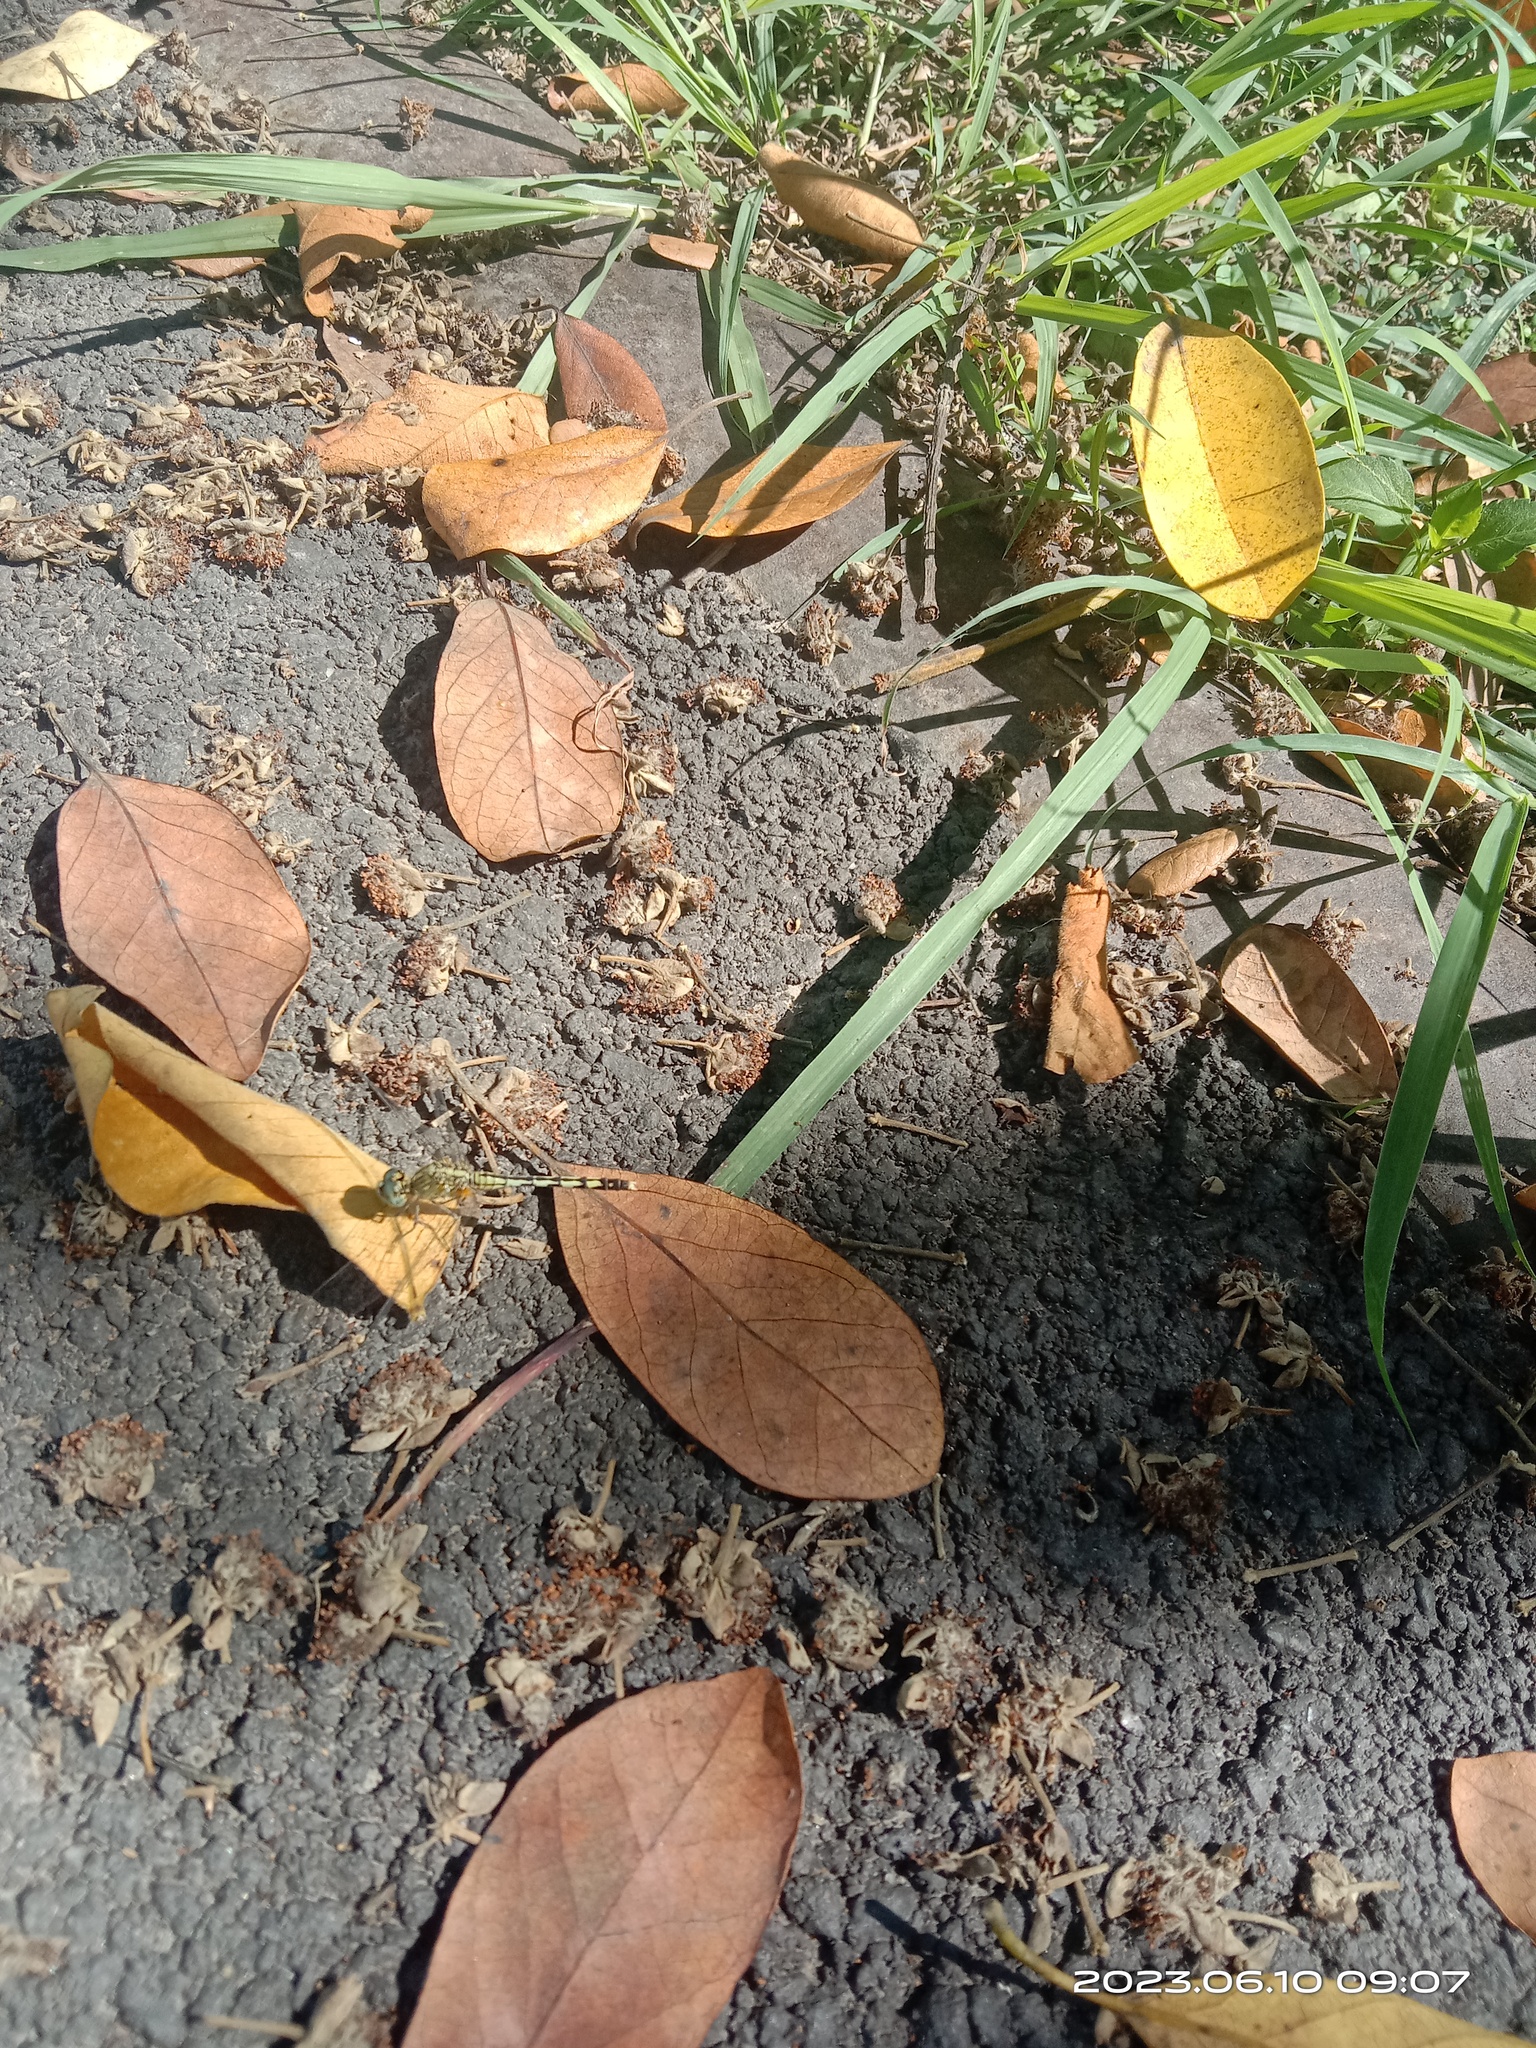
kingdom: Animalia
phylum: Arthropoda
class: Insecta
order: Odonata
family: Libellulidae
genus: Diplacodes
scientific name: Diplacodes trivialis
